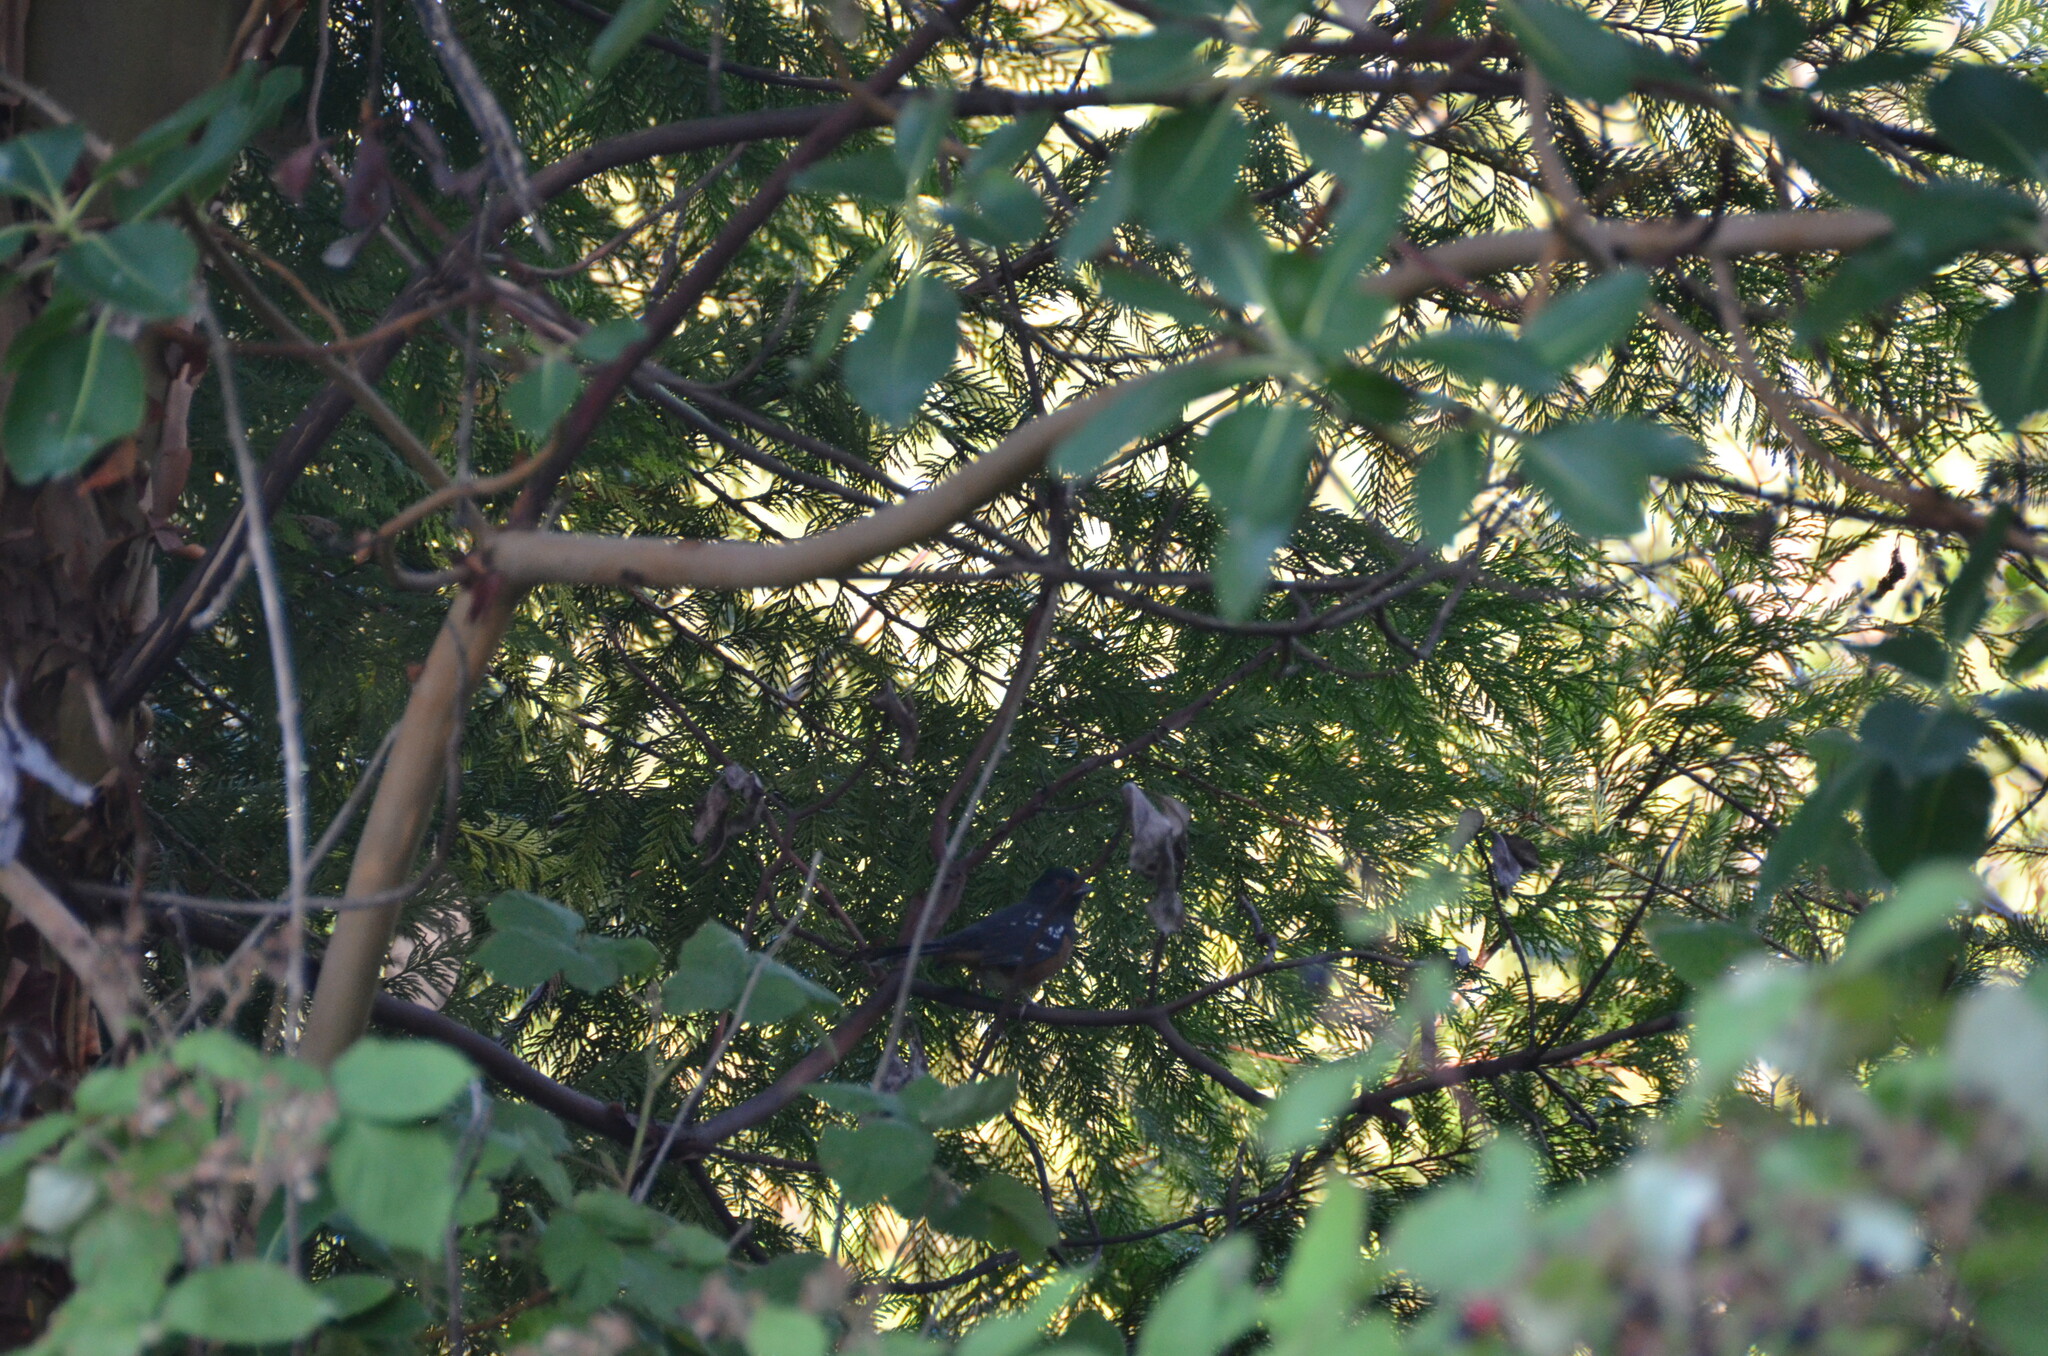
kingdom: Animalia
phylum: Chordata
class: Aves
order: Passeriformes
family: Passerellidae
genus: Pipilo
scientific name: Pipilo maculatus
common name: Spotted towhee
